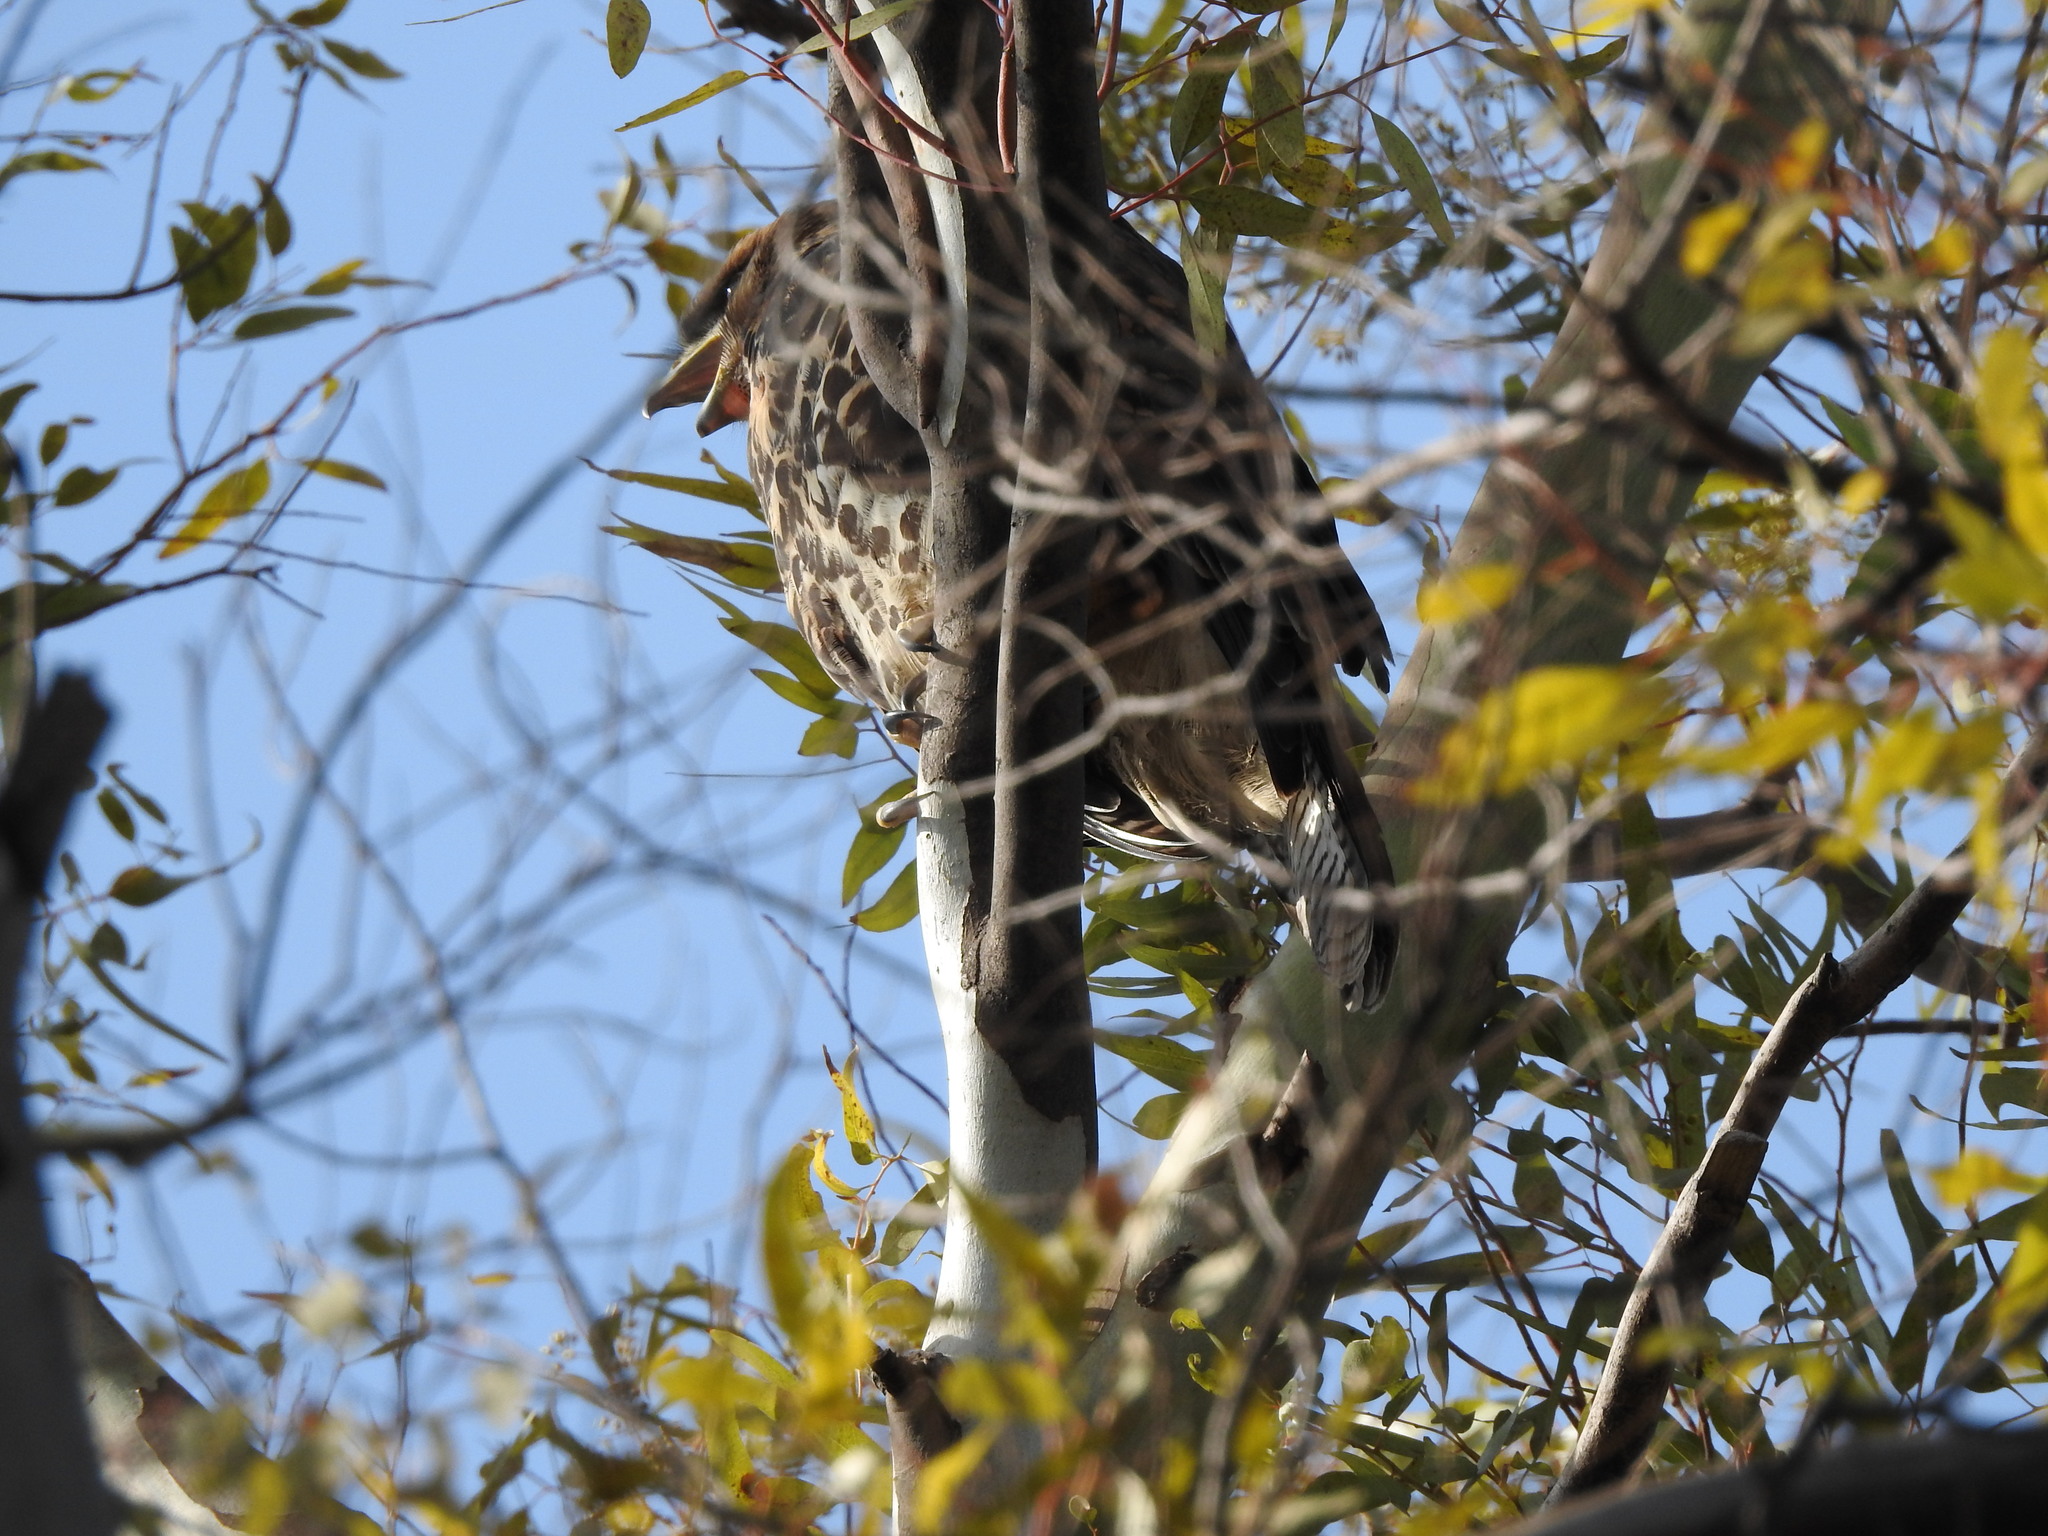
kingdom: Animalia
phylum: Chordata
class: Aves
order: Accipitriformes
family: Accipitridae
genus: Parabuteo
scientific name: Parabuteo unicinctus
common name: Harris's hawk
